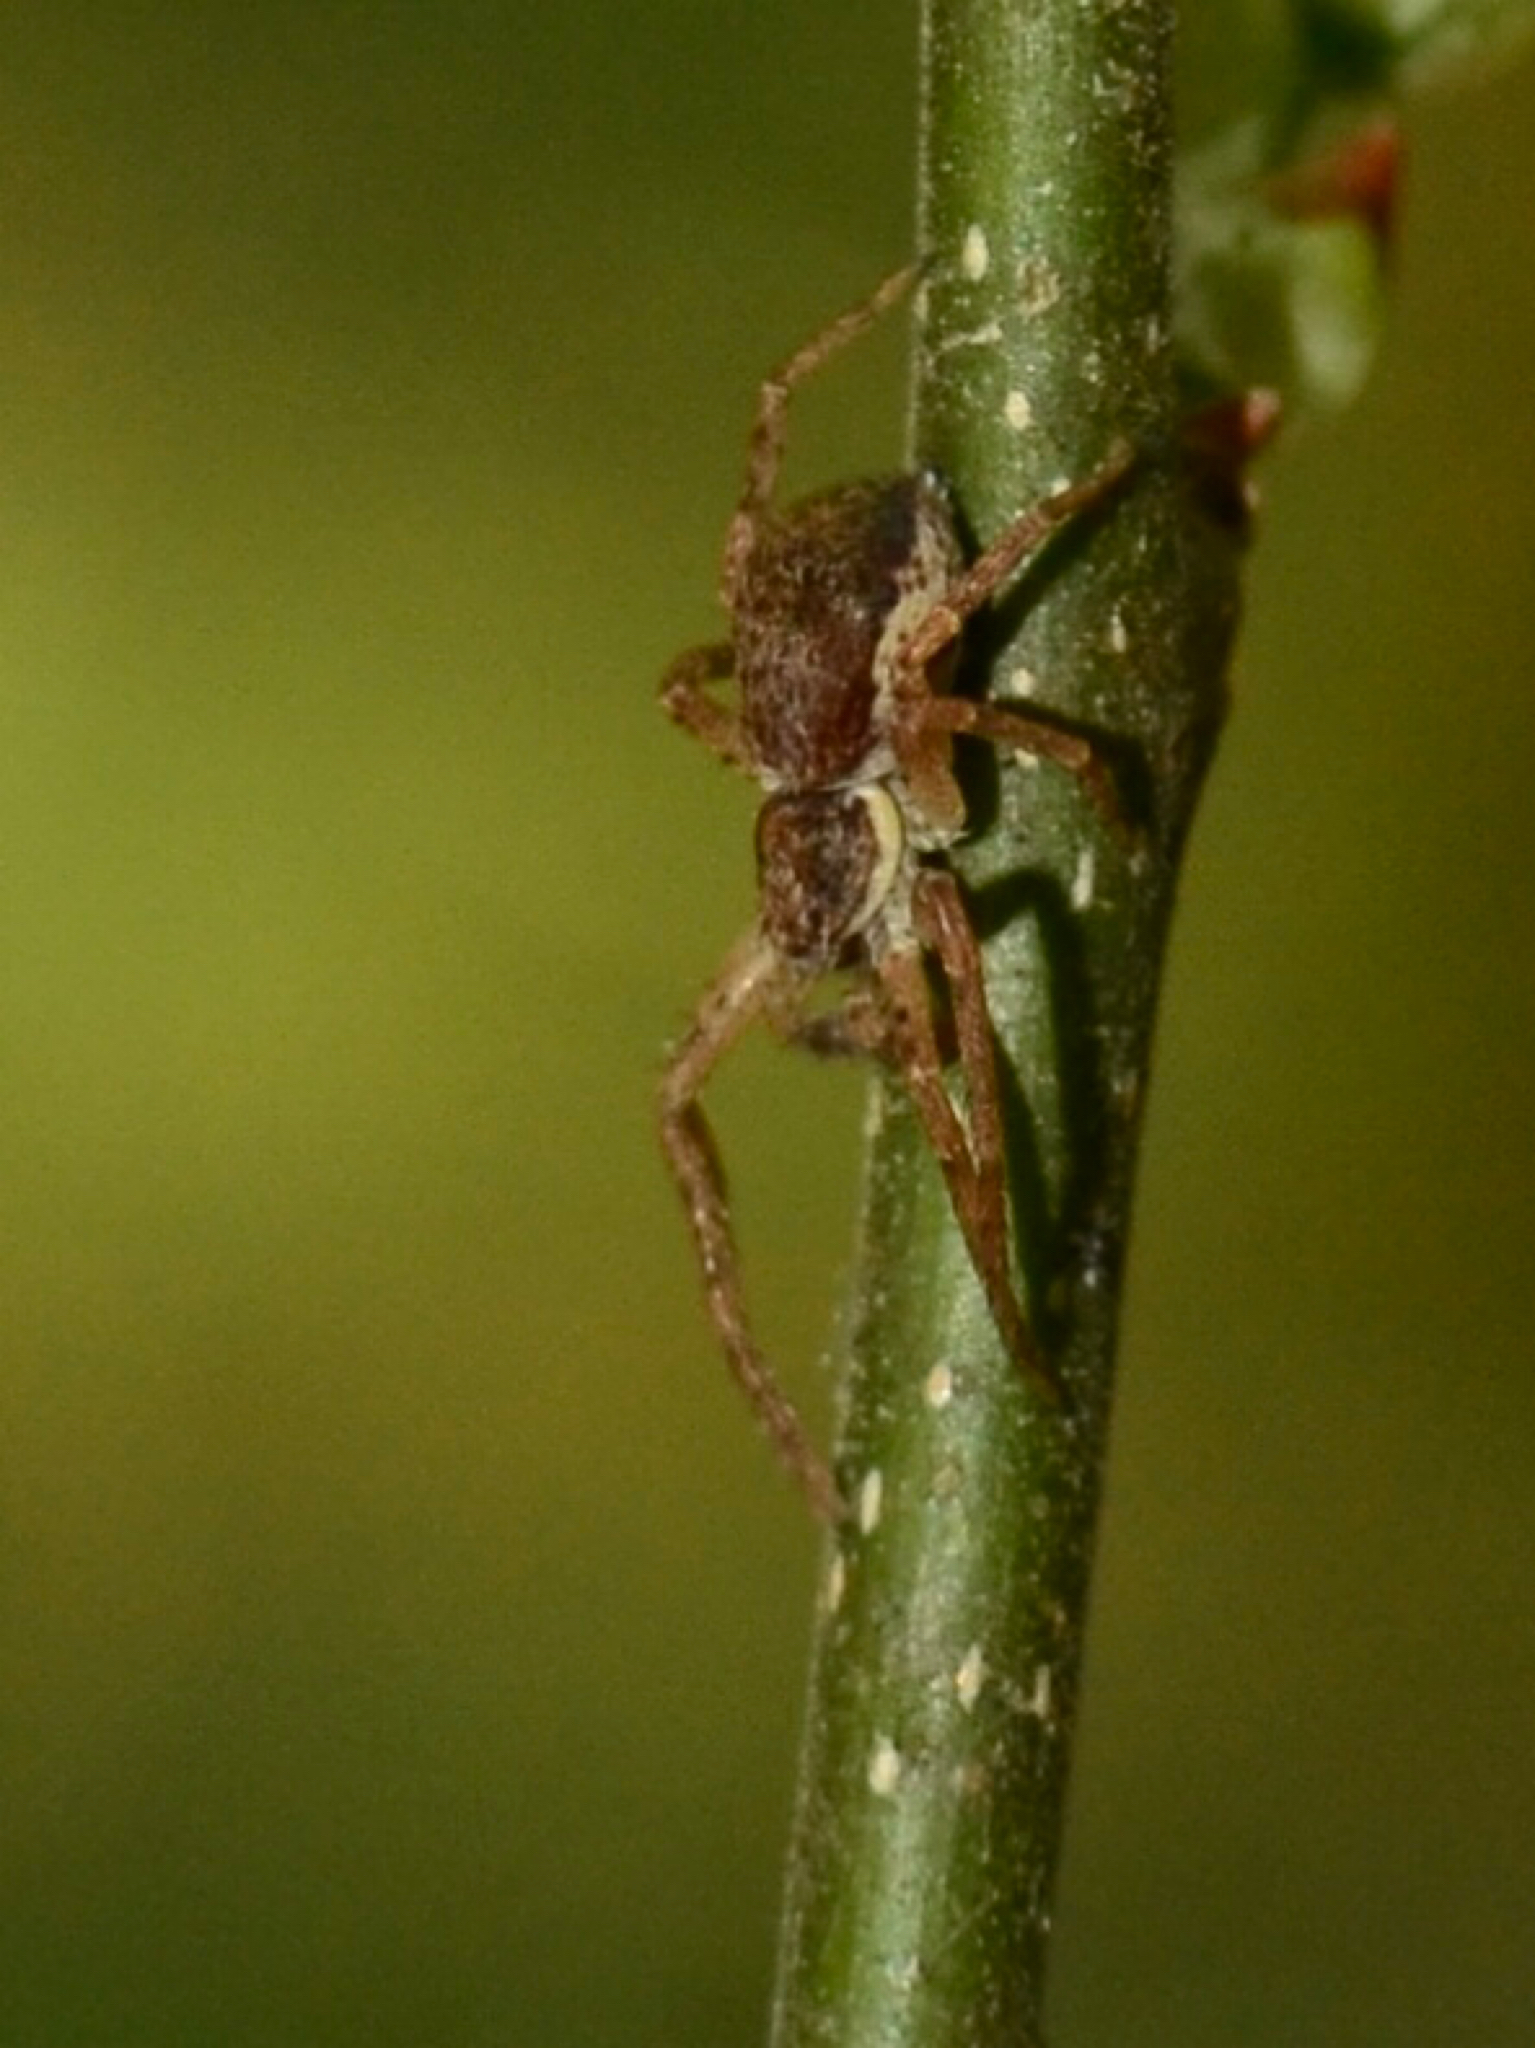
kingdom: Animalia
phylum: Arthropoda
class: Arachnida
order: Araneae
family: Philodromidae
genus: Philodromus
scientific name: Philodromus dispar
